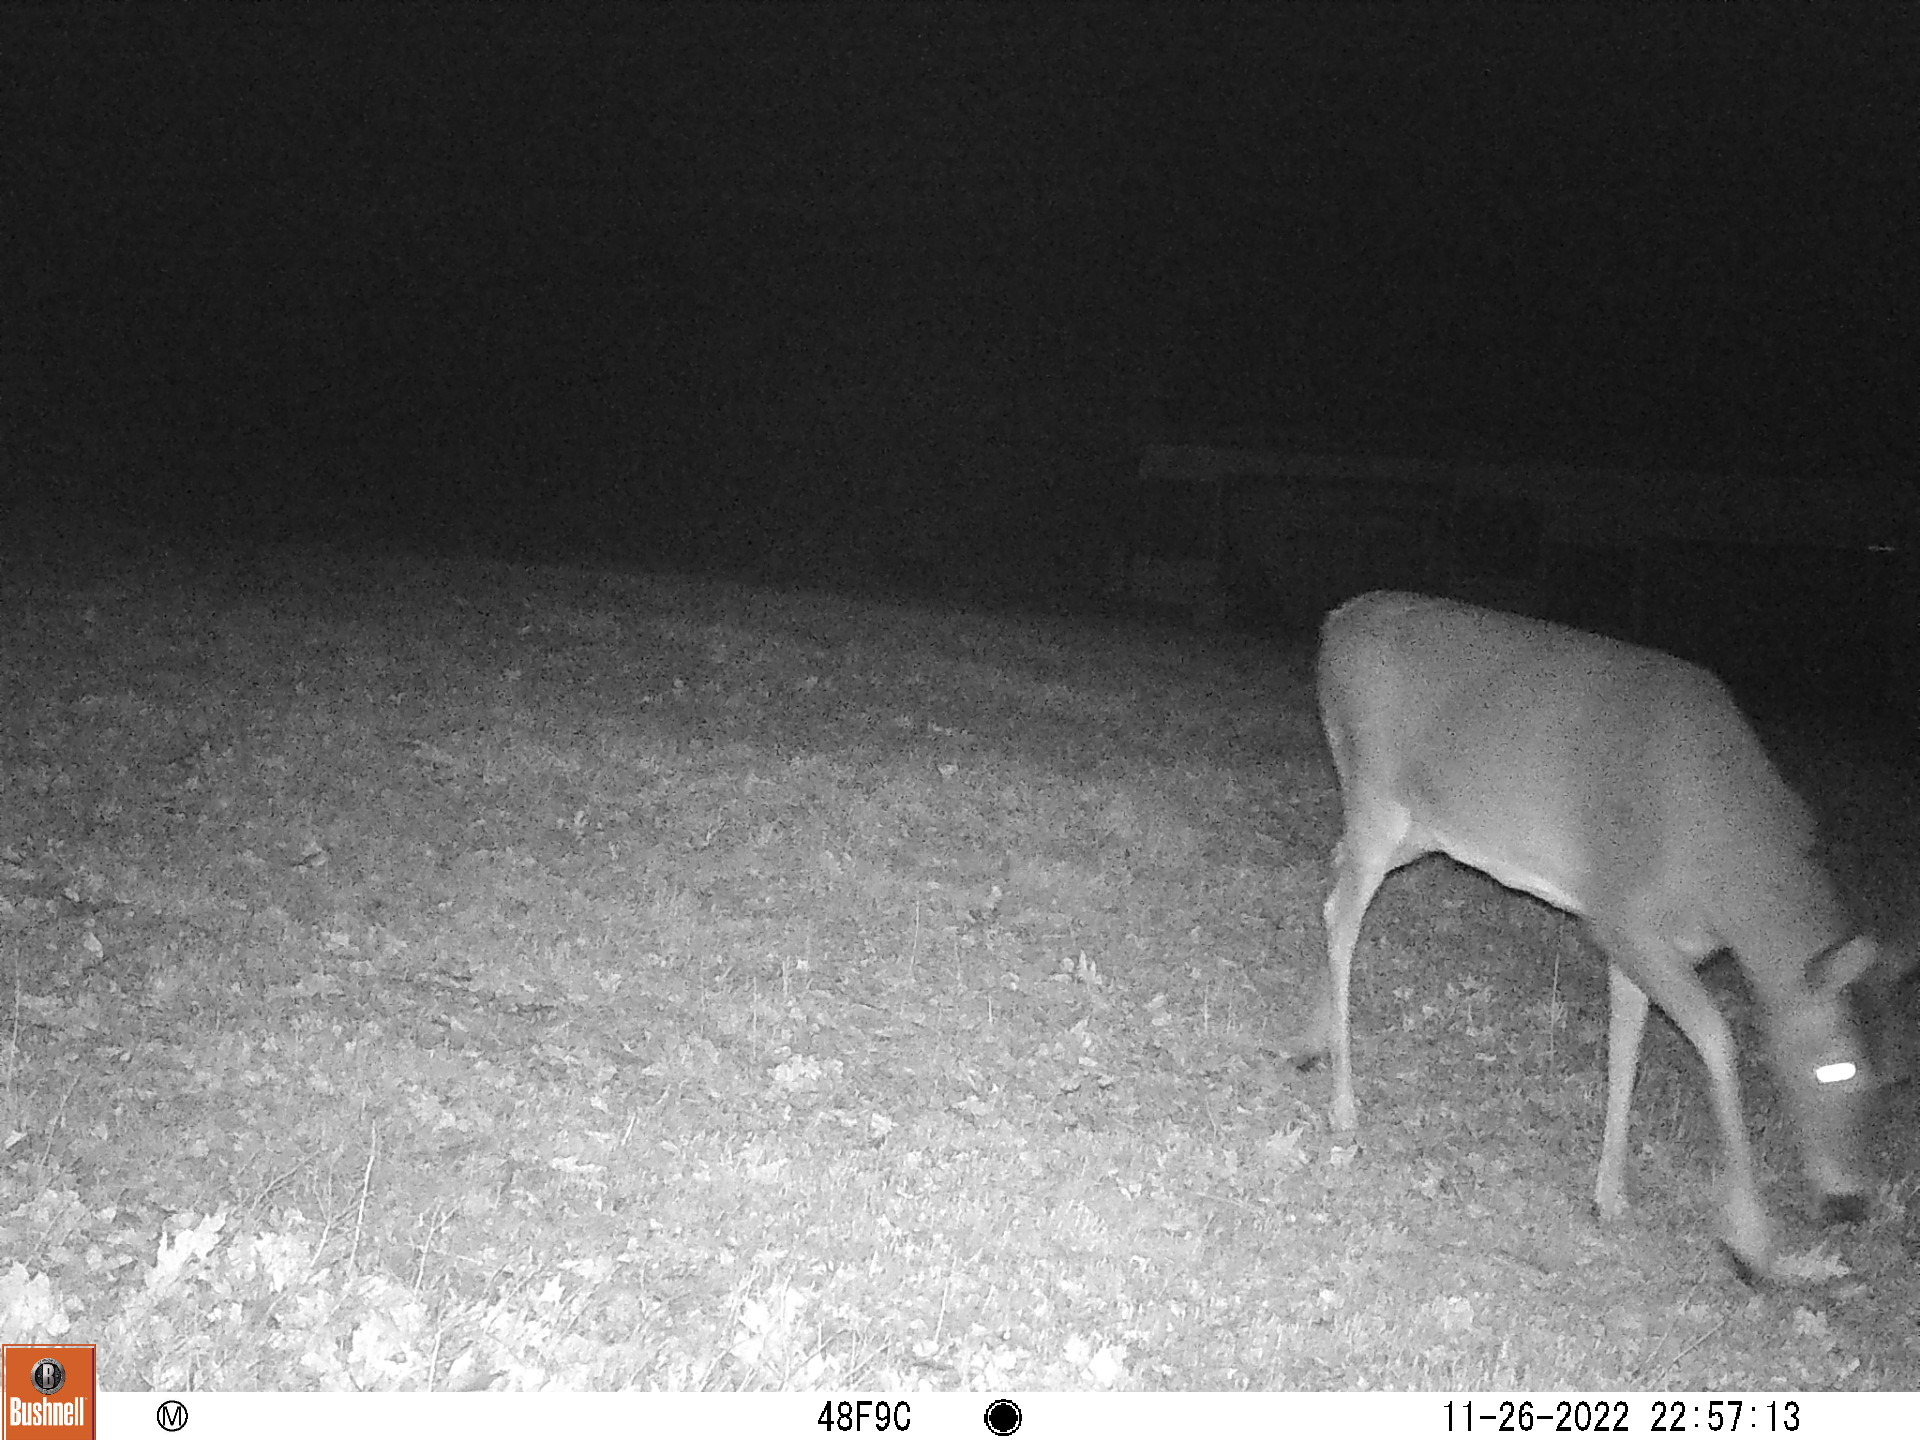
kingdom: Animalia
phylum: Chordata
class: Mammalia
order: Artiodactyla
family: Cervidae
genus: Odocoileus
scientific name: Odocoileus virginianus
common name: White-tailed deer
